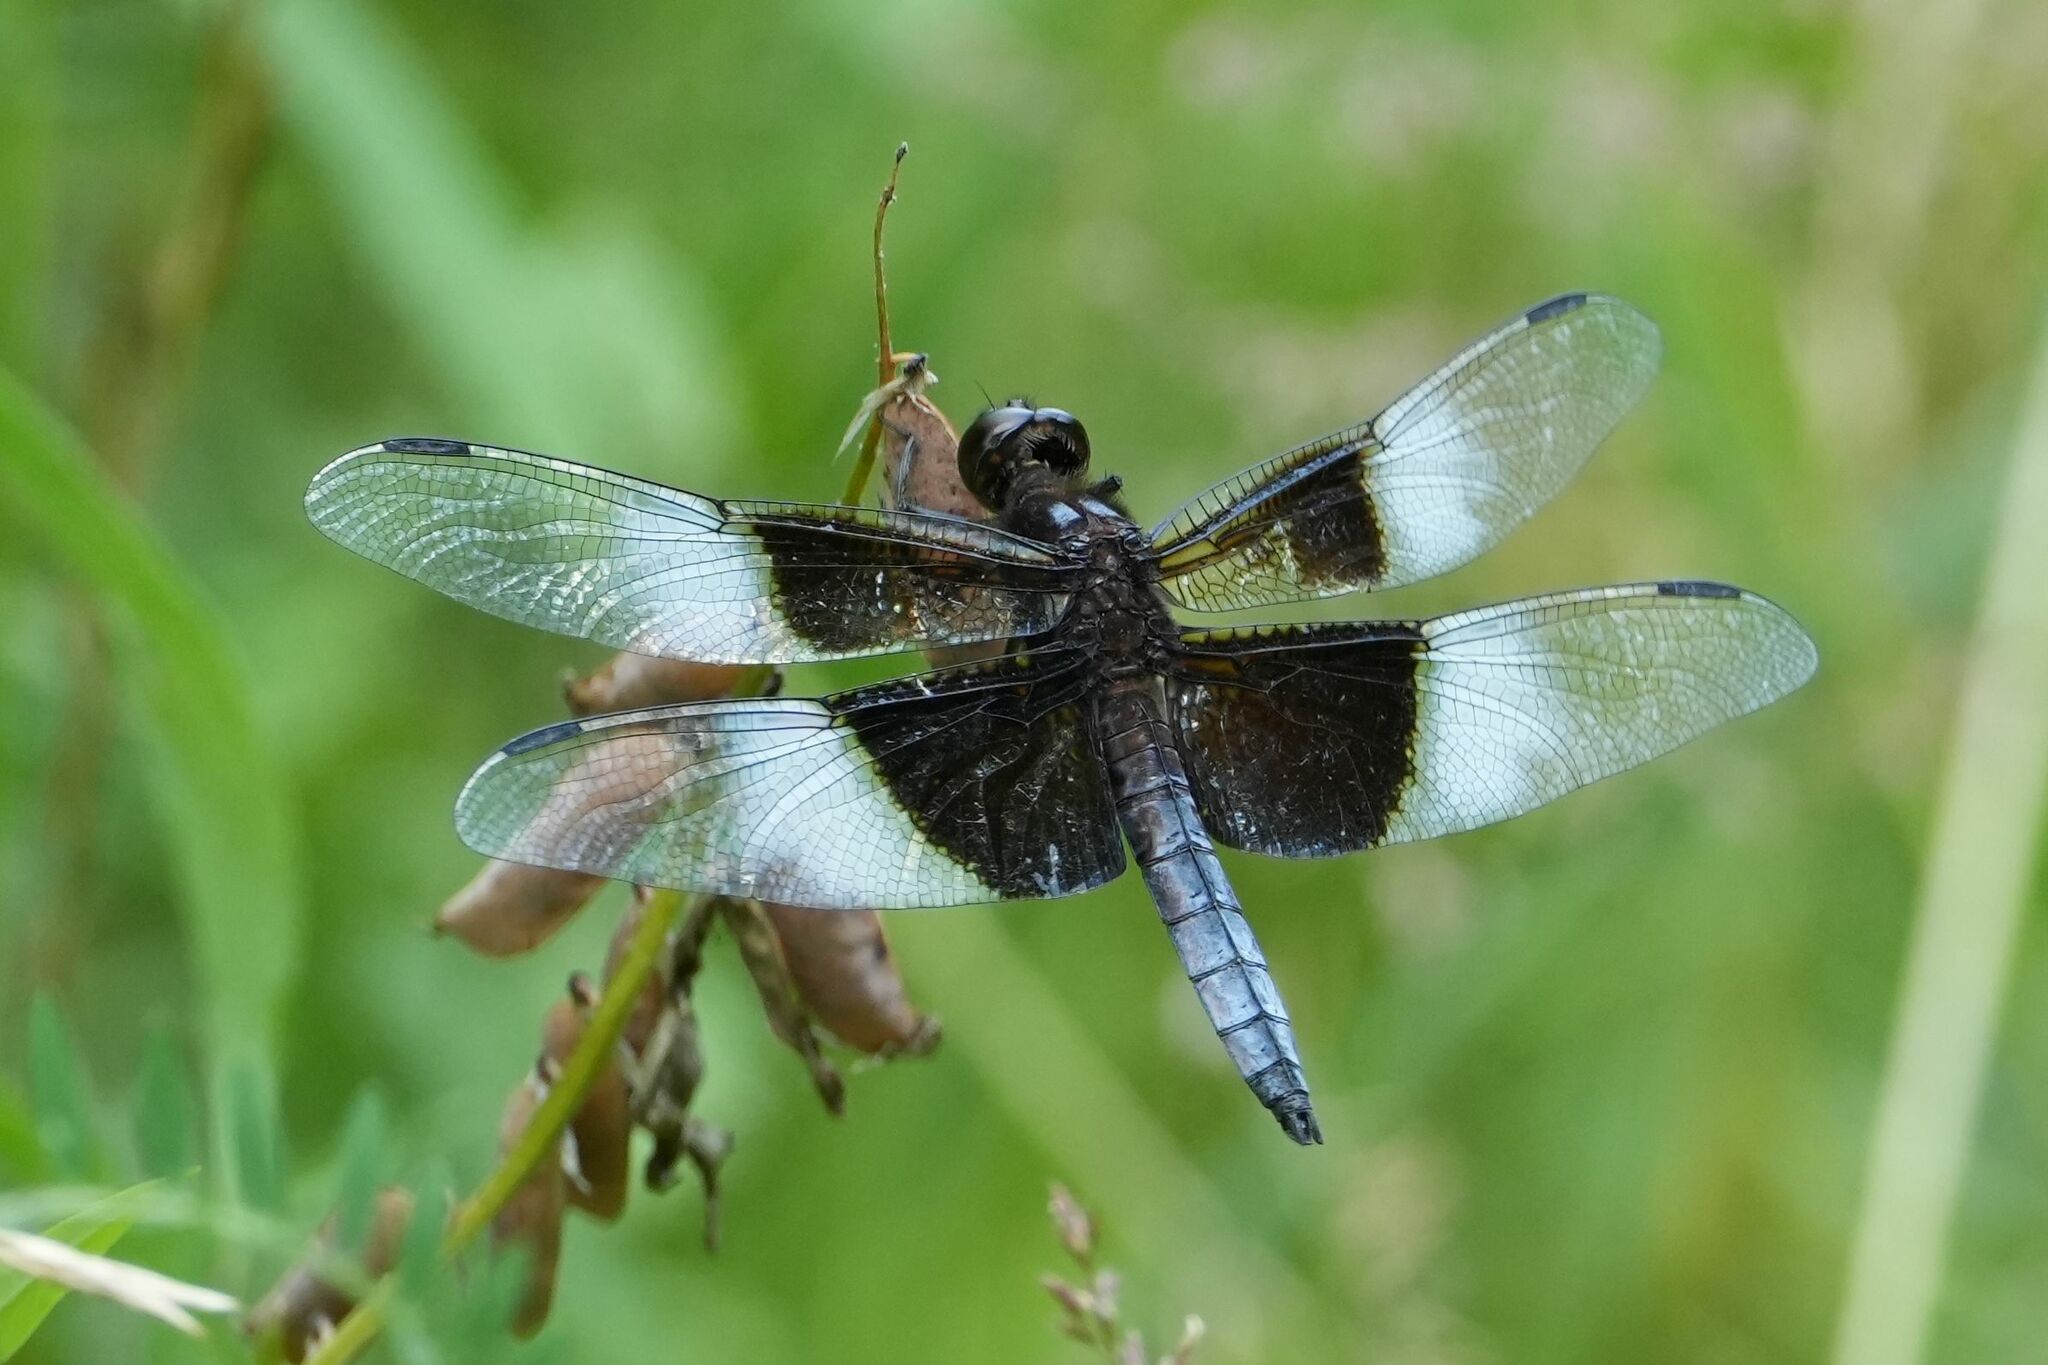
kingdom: Animalia
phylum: Arthropoda
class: Insecta
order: Odonata
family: Libellulidae
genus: Libellula
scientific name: Libellula luctuosa
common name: Widow skimmer
